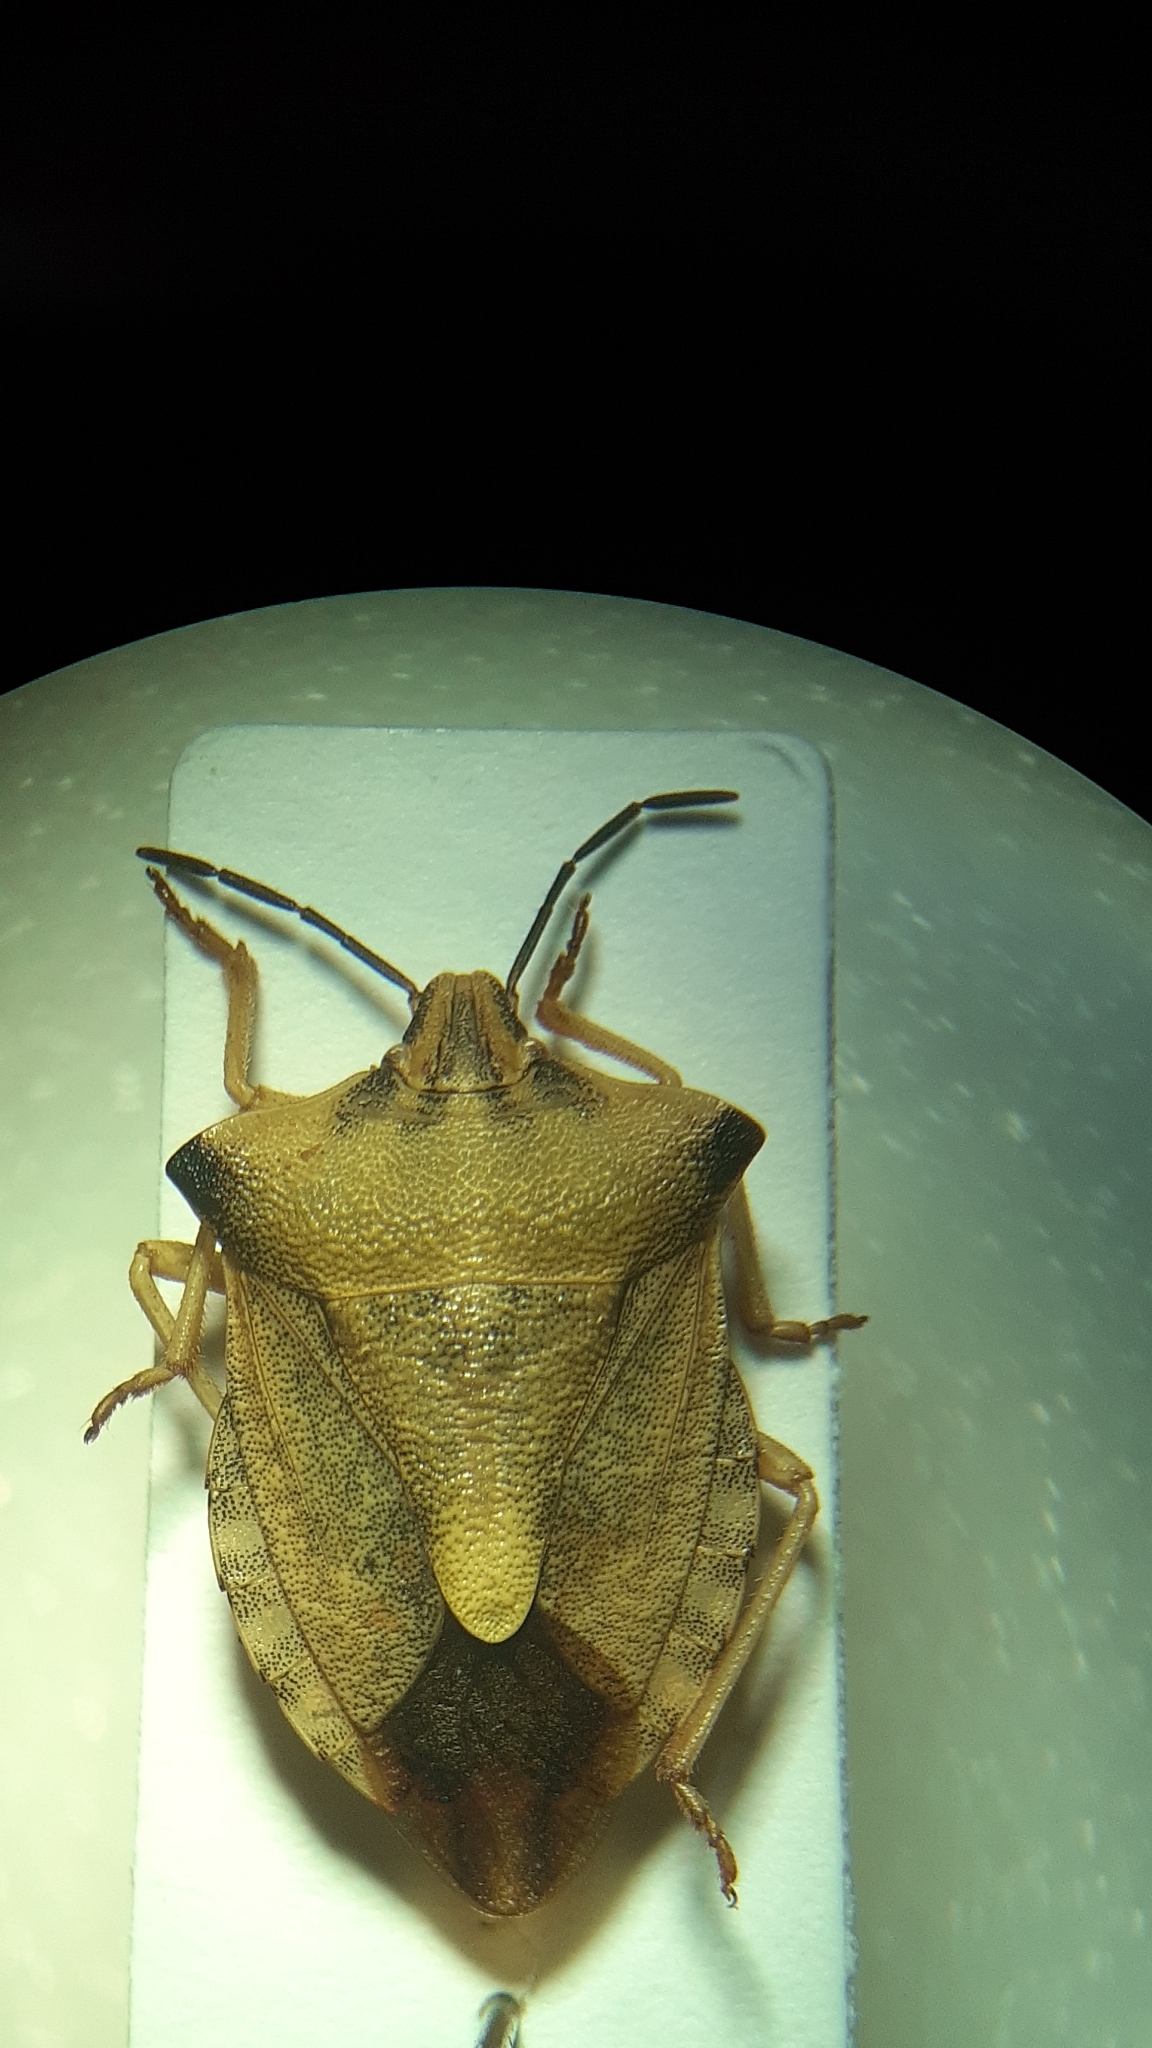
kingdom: Animalia
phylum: Arthropoda
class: Insecta
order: Hemiptera
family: Pentatomidae
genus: Carpocoris
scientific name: Carpocoris fuscispinus
